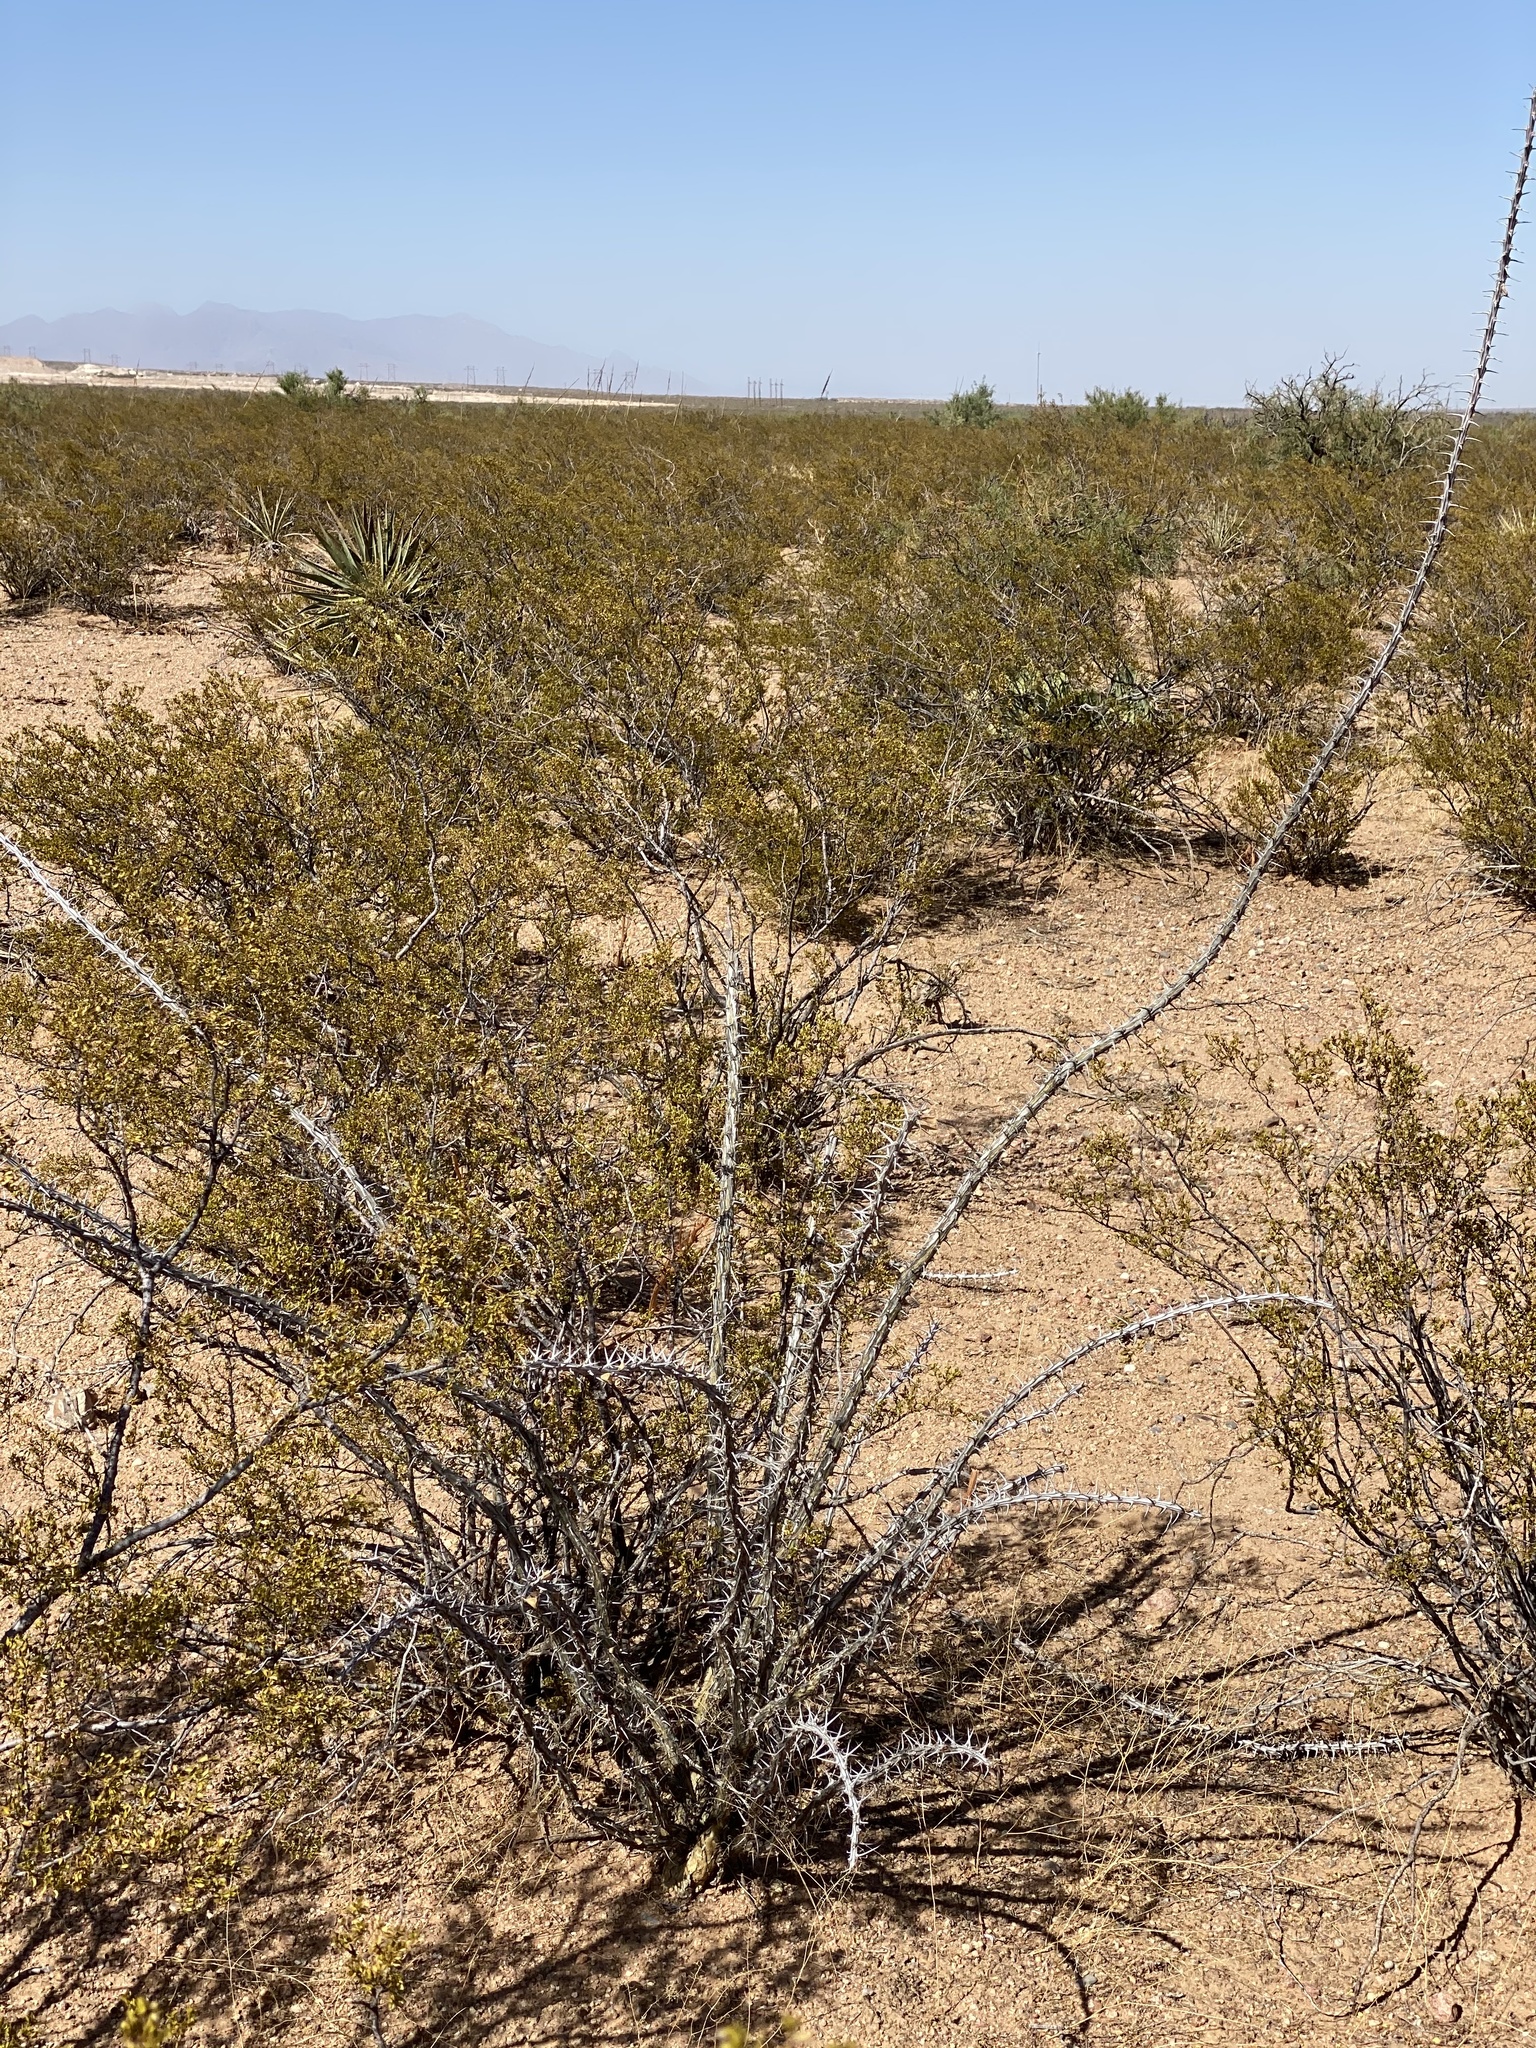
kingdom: Plantae
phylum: Tracheophyta
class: Magnoliopsida
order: Ericales
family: Fouquieriaceae
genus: Fouquieria
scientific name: Fouquieria splendens
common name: Vine-cactus
